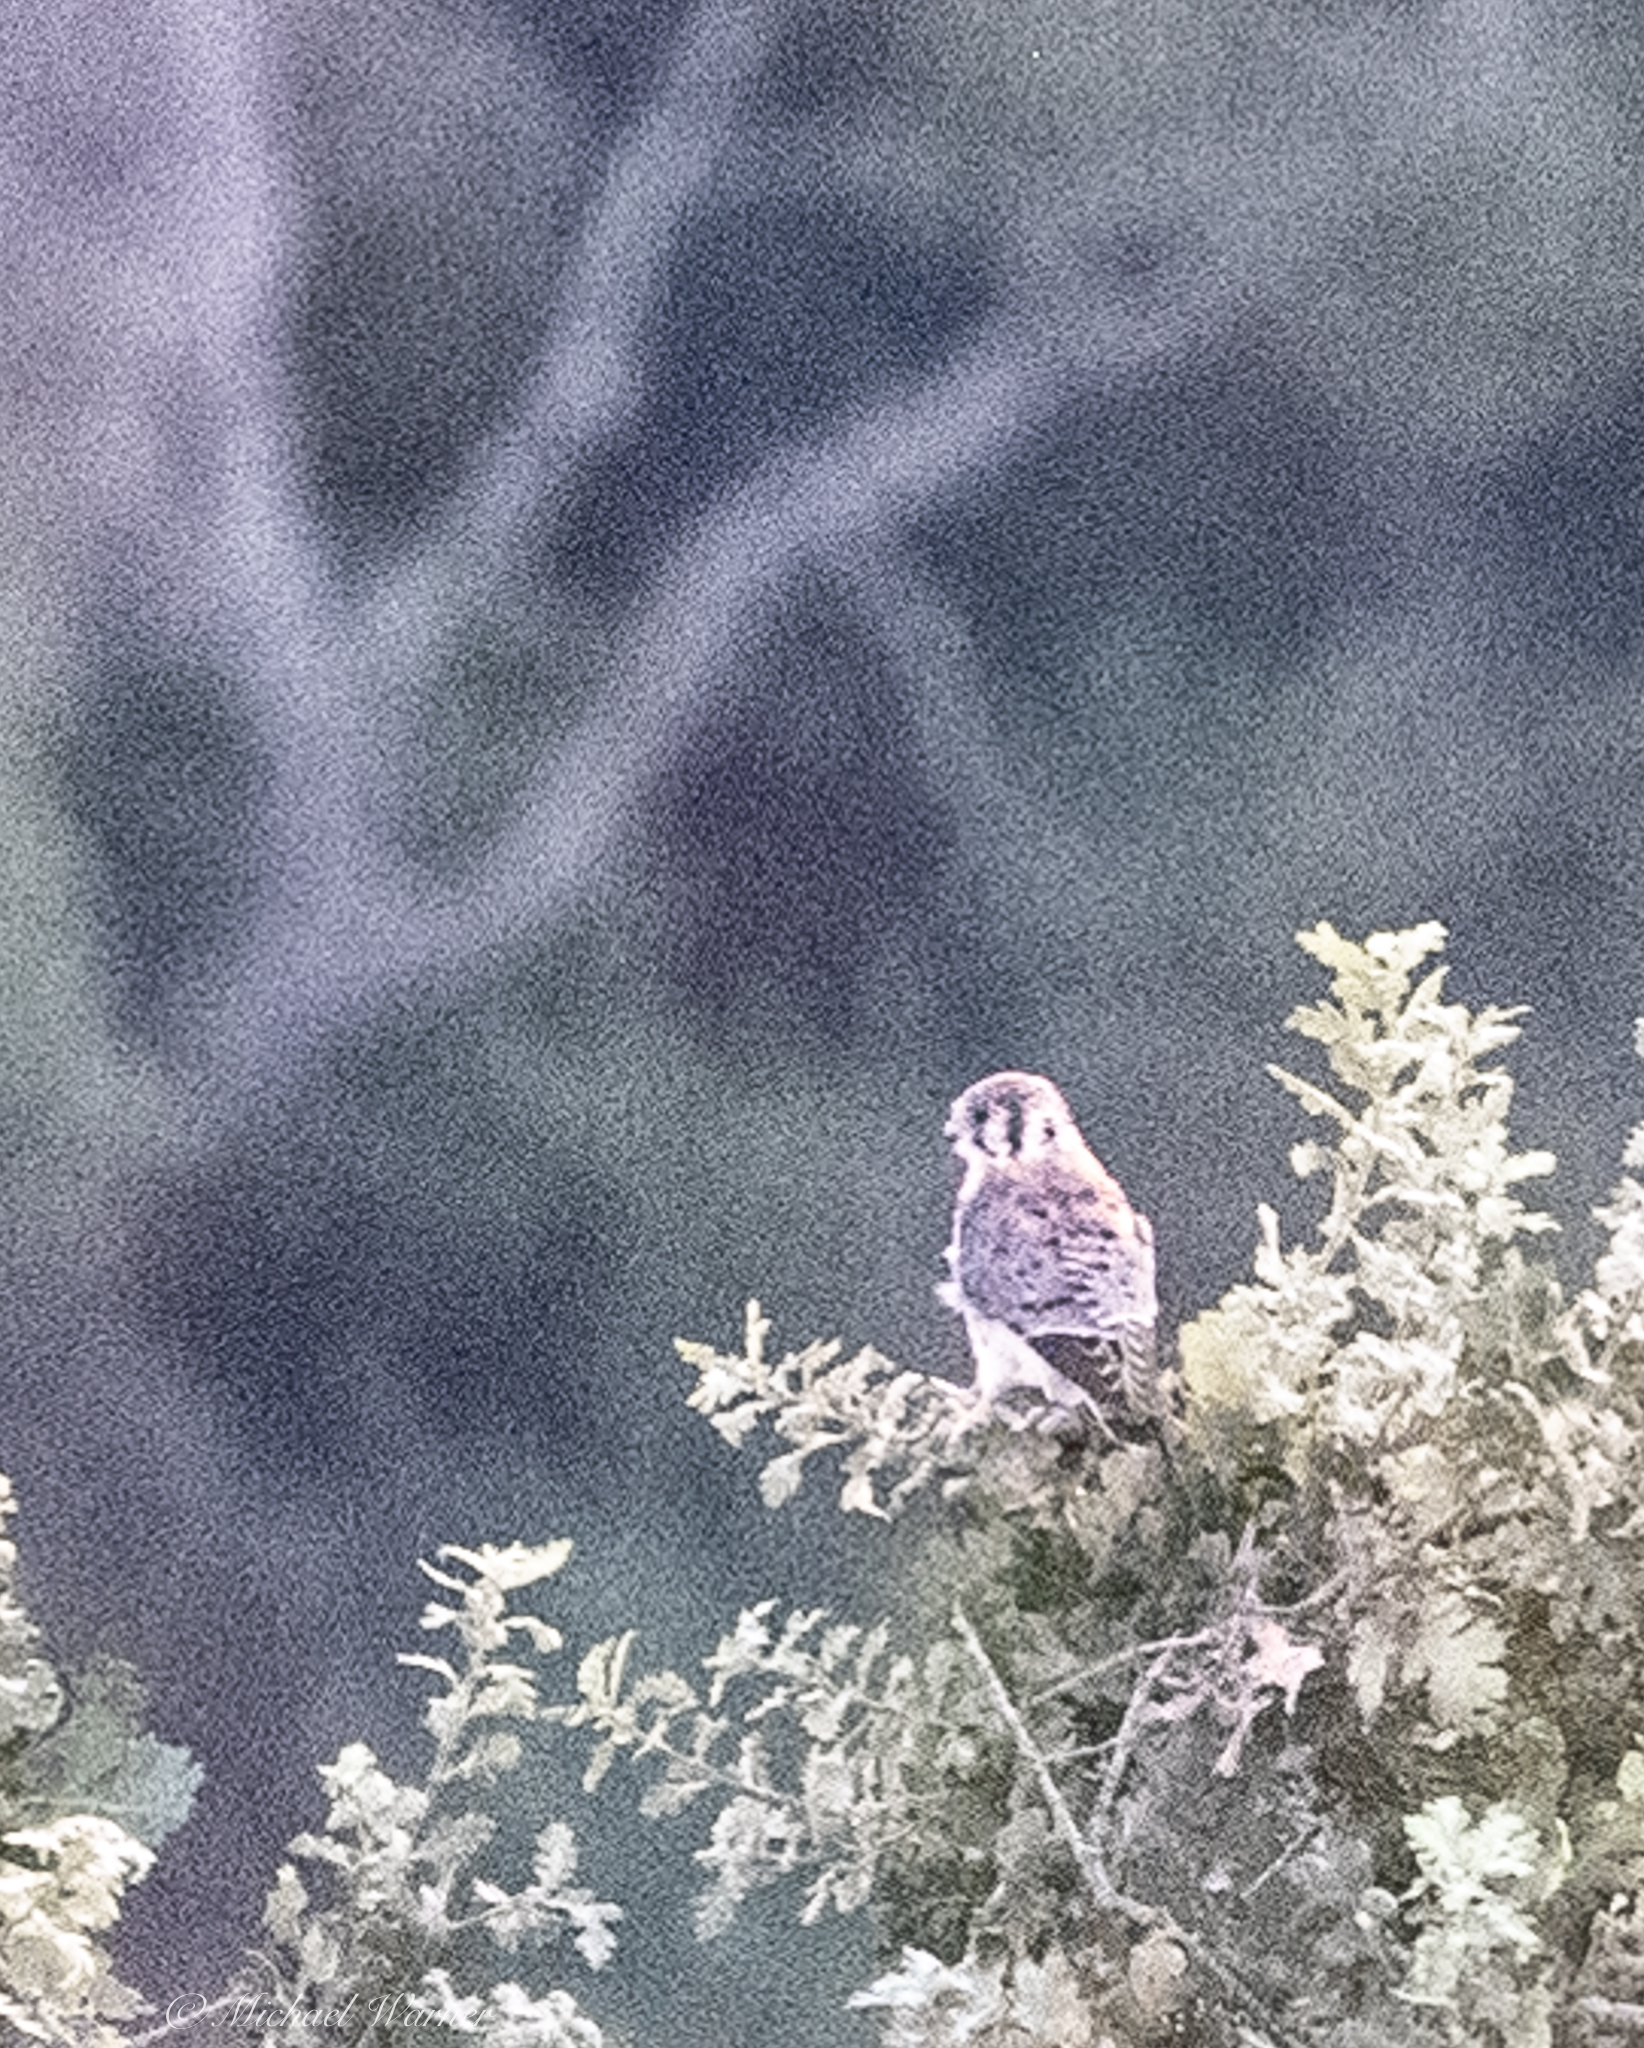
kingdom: Animalia
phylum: Chordata
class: Aves
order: Falconiformes
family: Falconidae
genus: Falco
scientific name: Falco sparverius
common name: American kestrel
